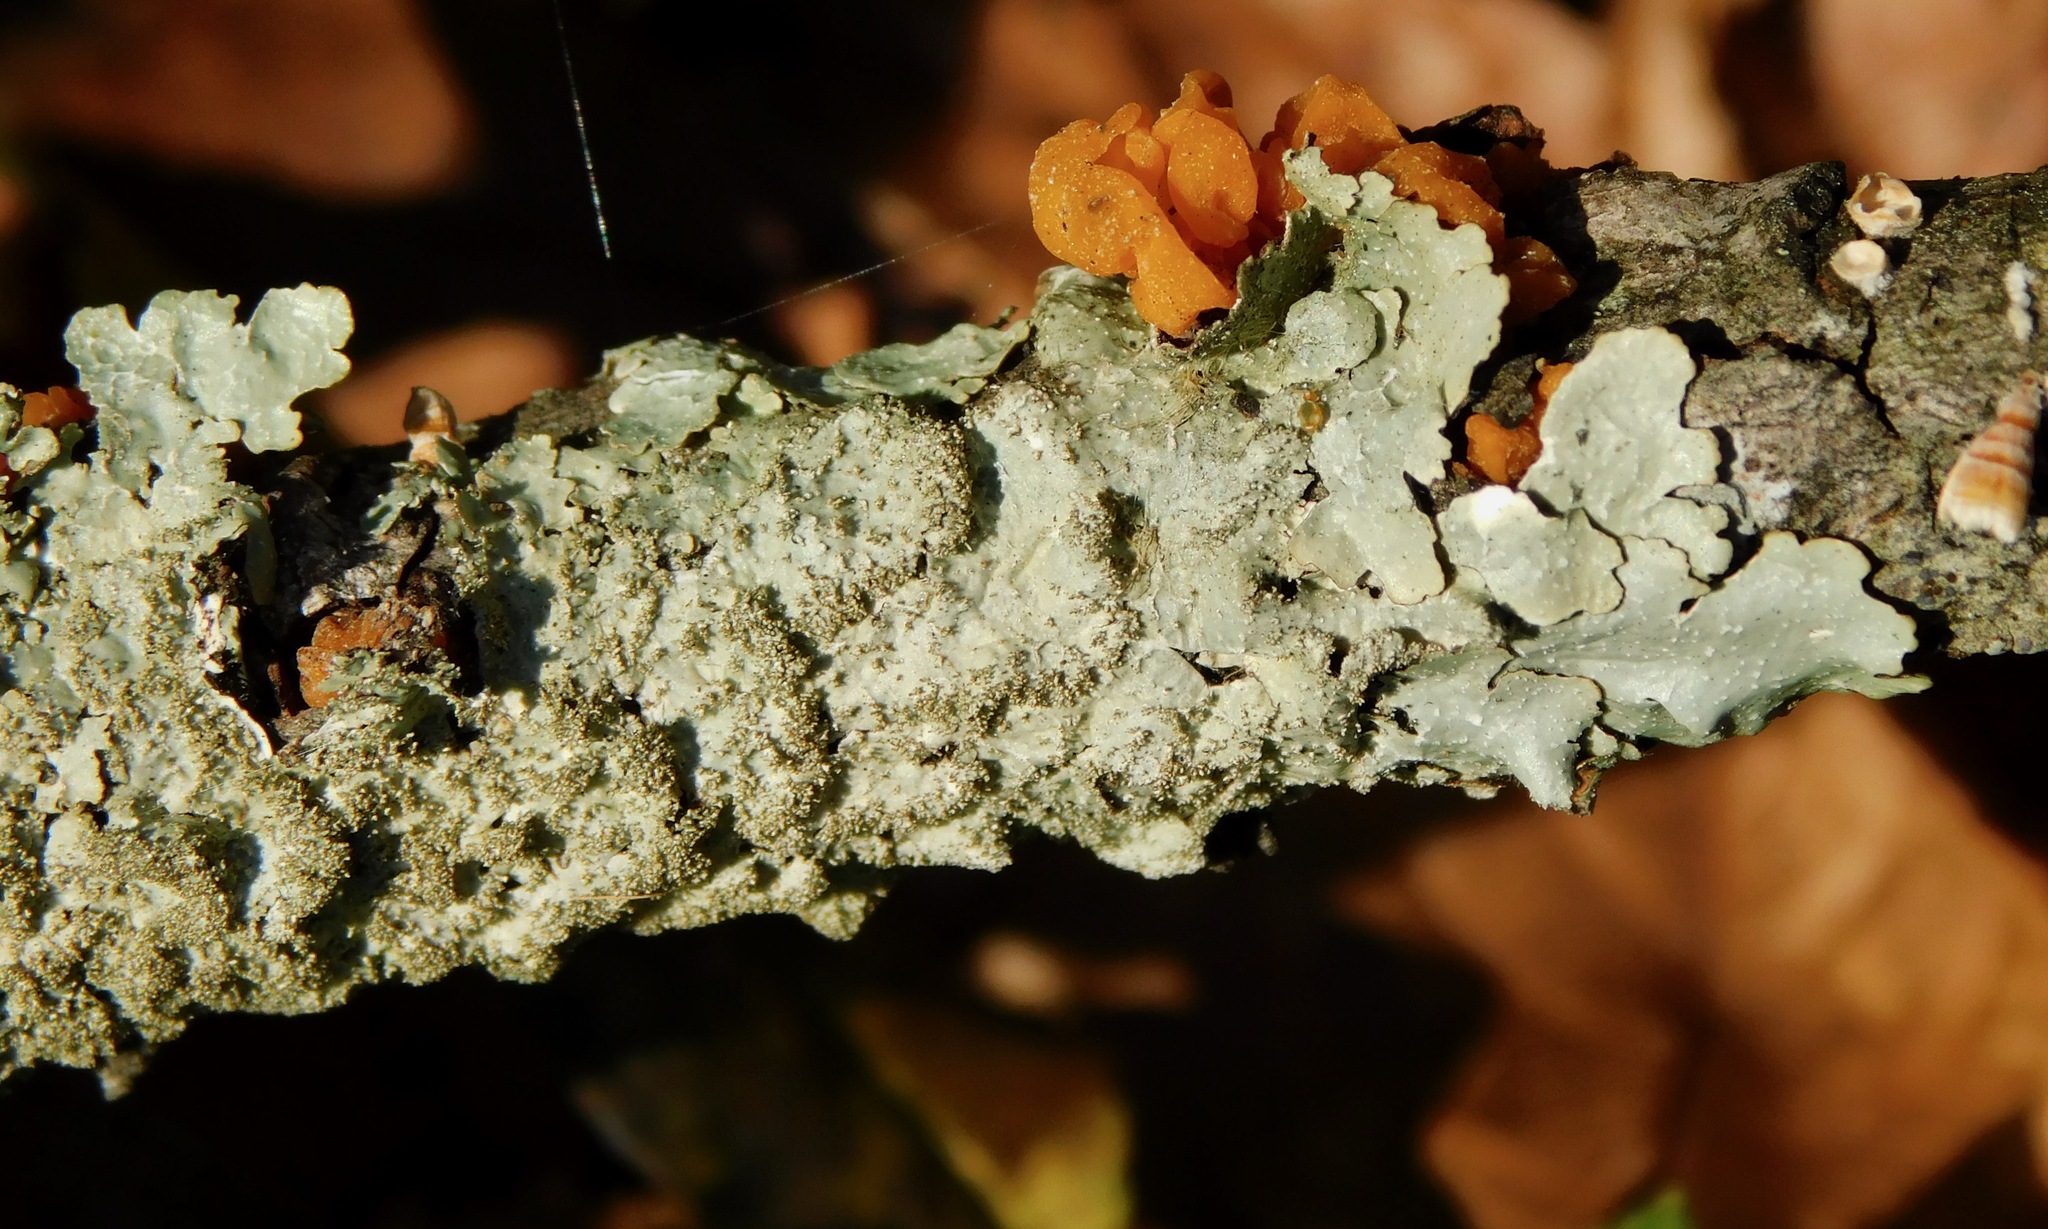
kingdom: Fungi
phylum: Ascomycota
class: Lecanoromycetes
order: Lecanorales
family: Parmeliaceae
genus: Punctelia
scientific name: Punctelia rudecta
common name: Rough speckled shield lichen
